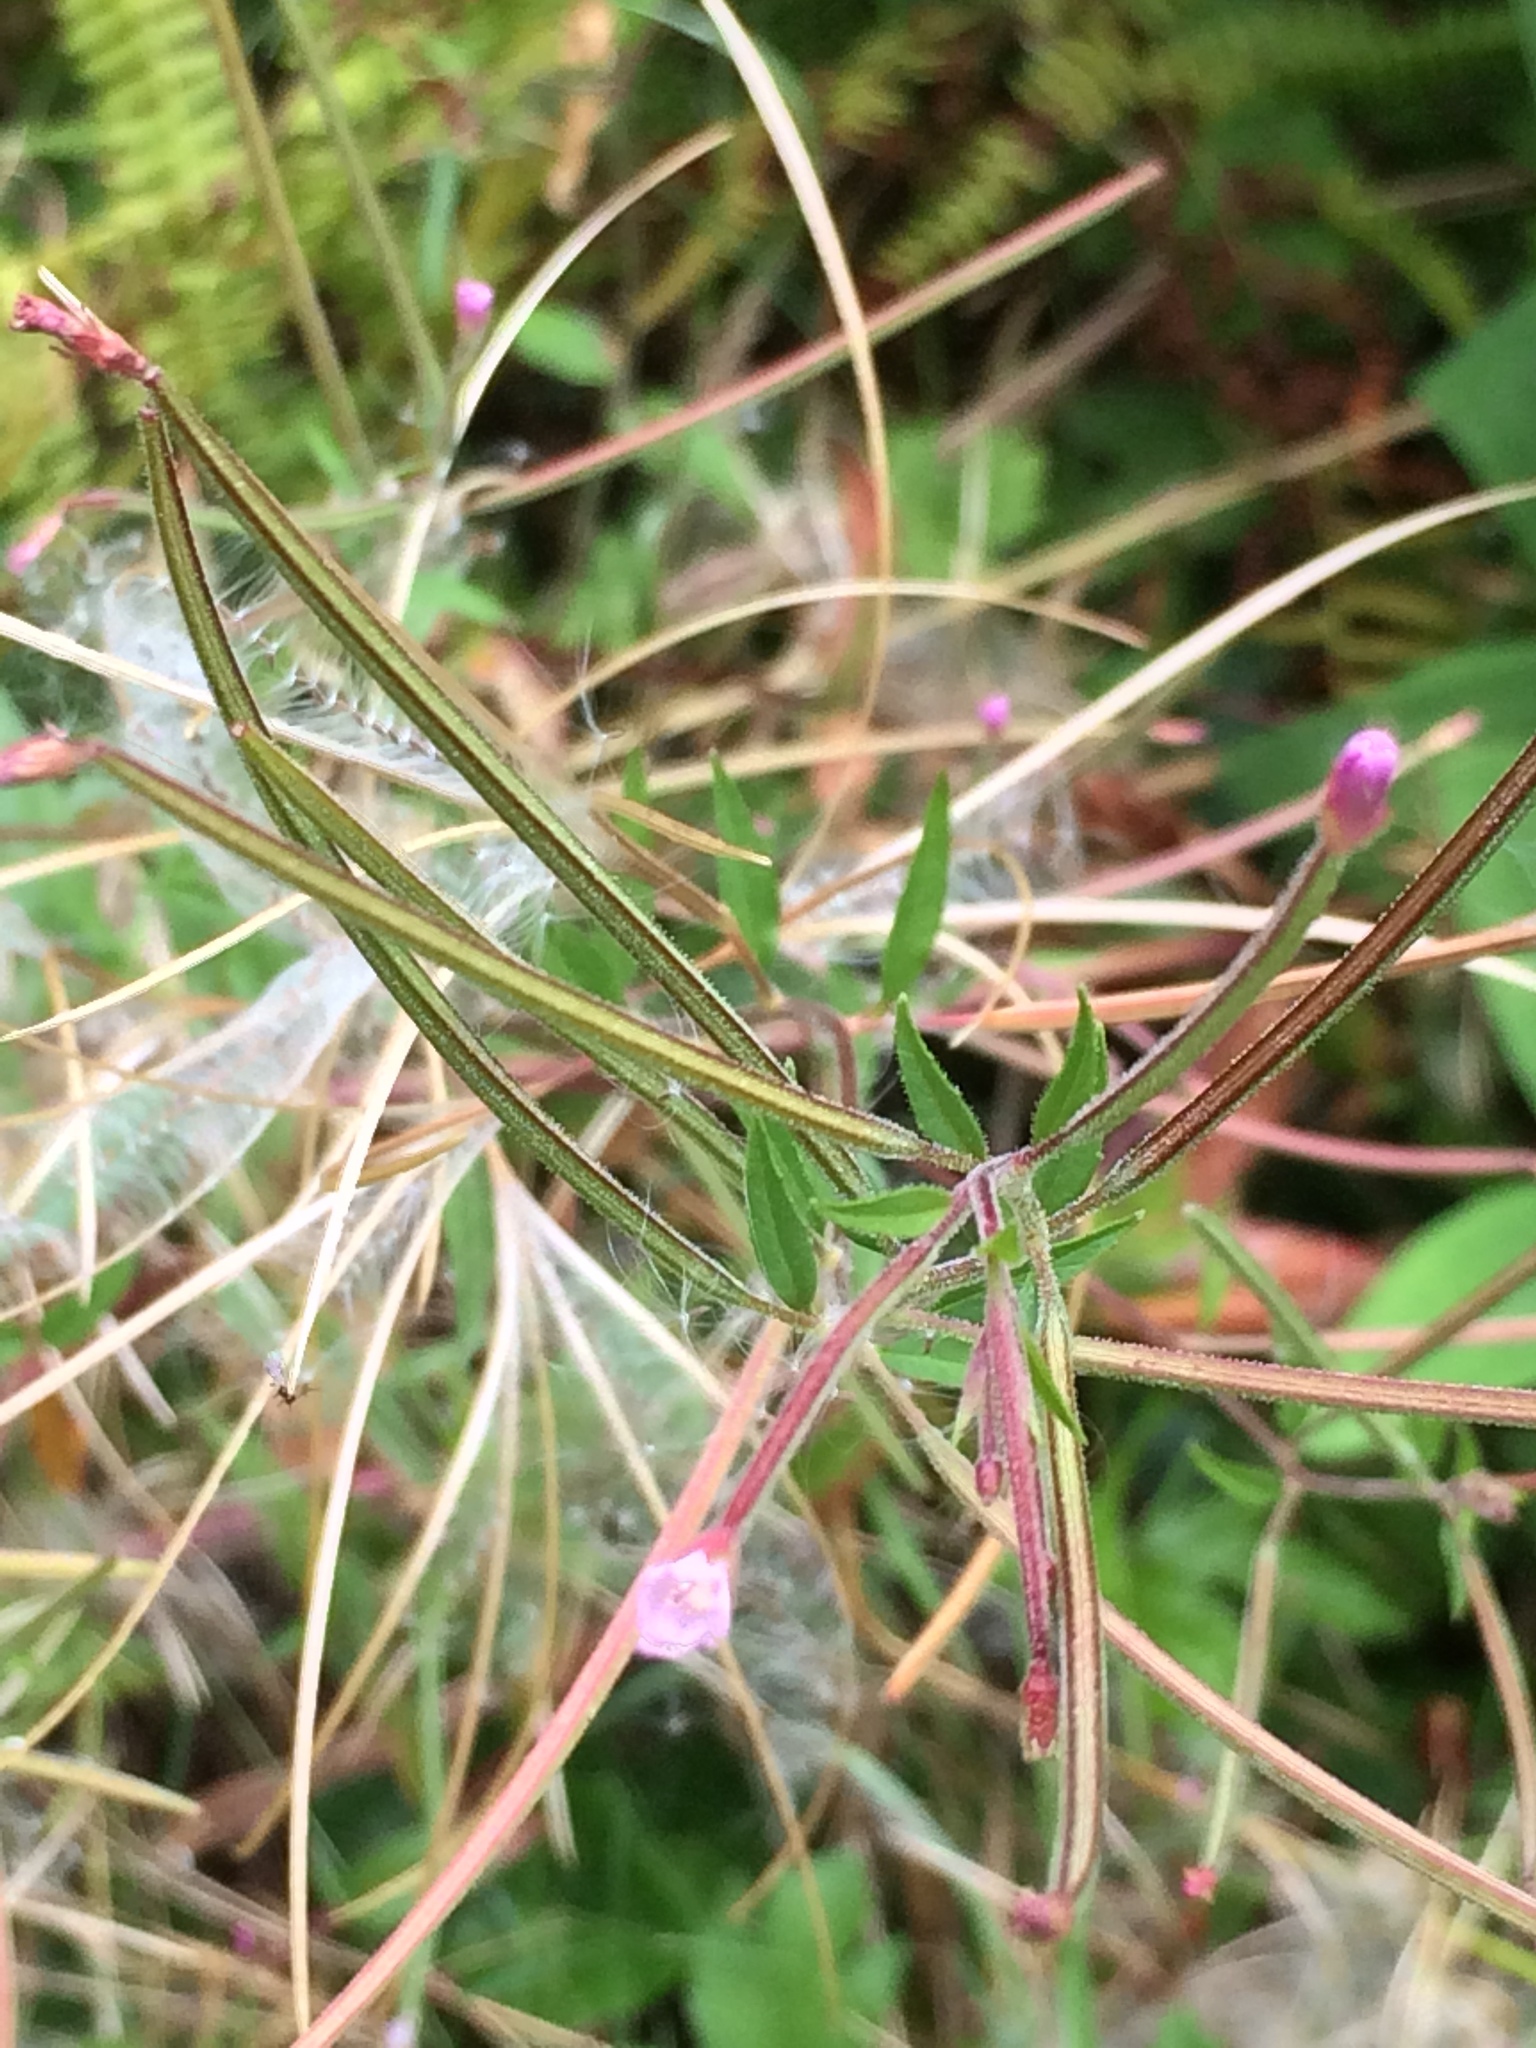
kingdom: Plantae
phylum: Tracheophyta
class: Magnoliopsida
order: Myrtales
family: Onagraceae
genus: Epilobium
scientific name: Epilobium ciliatum
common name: American willowherb
